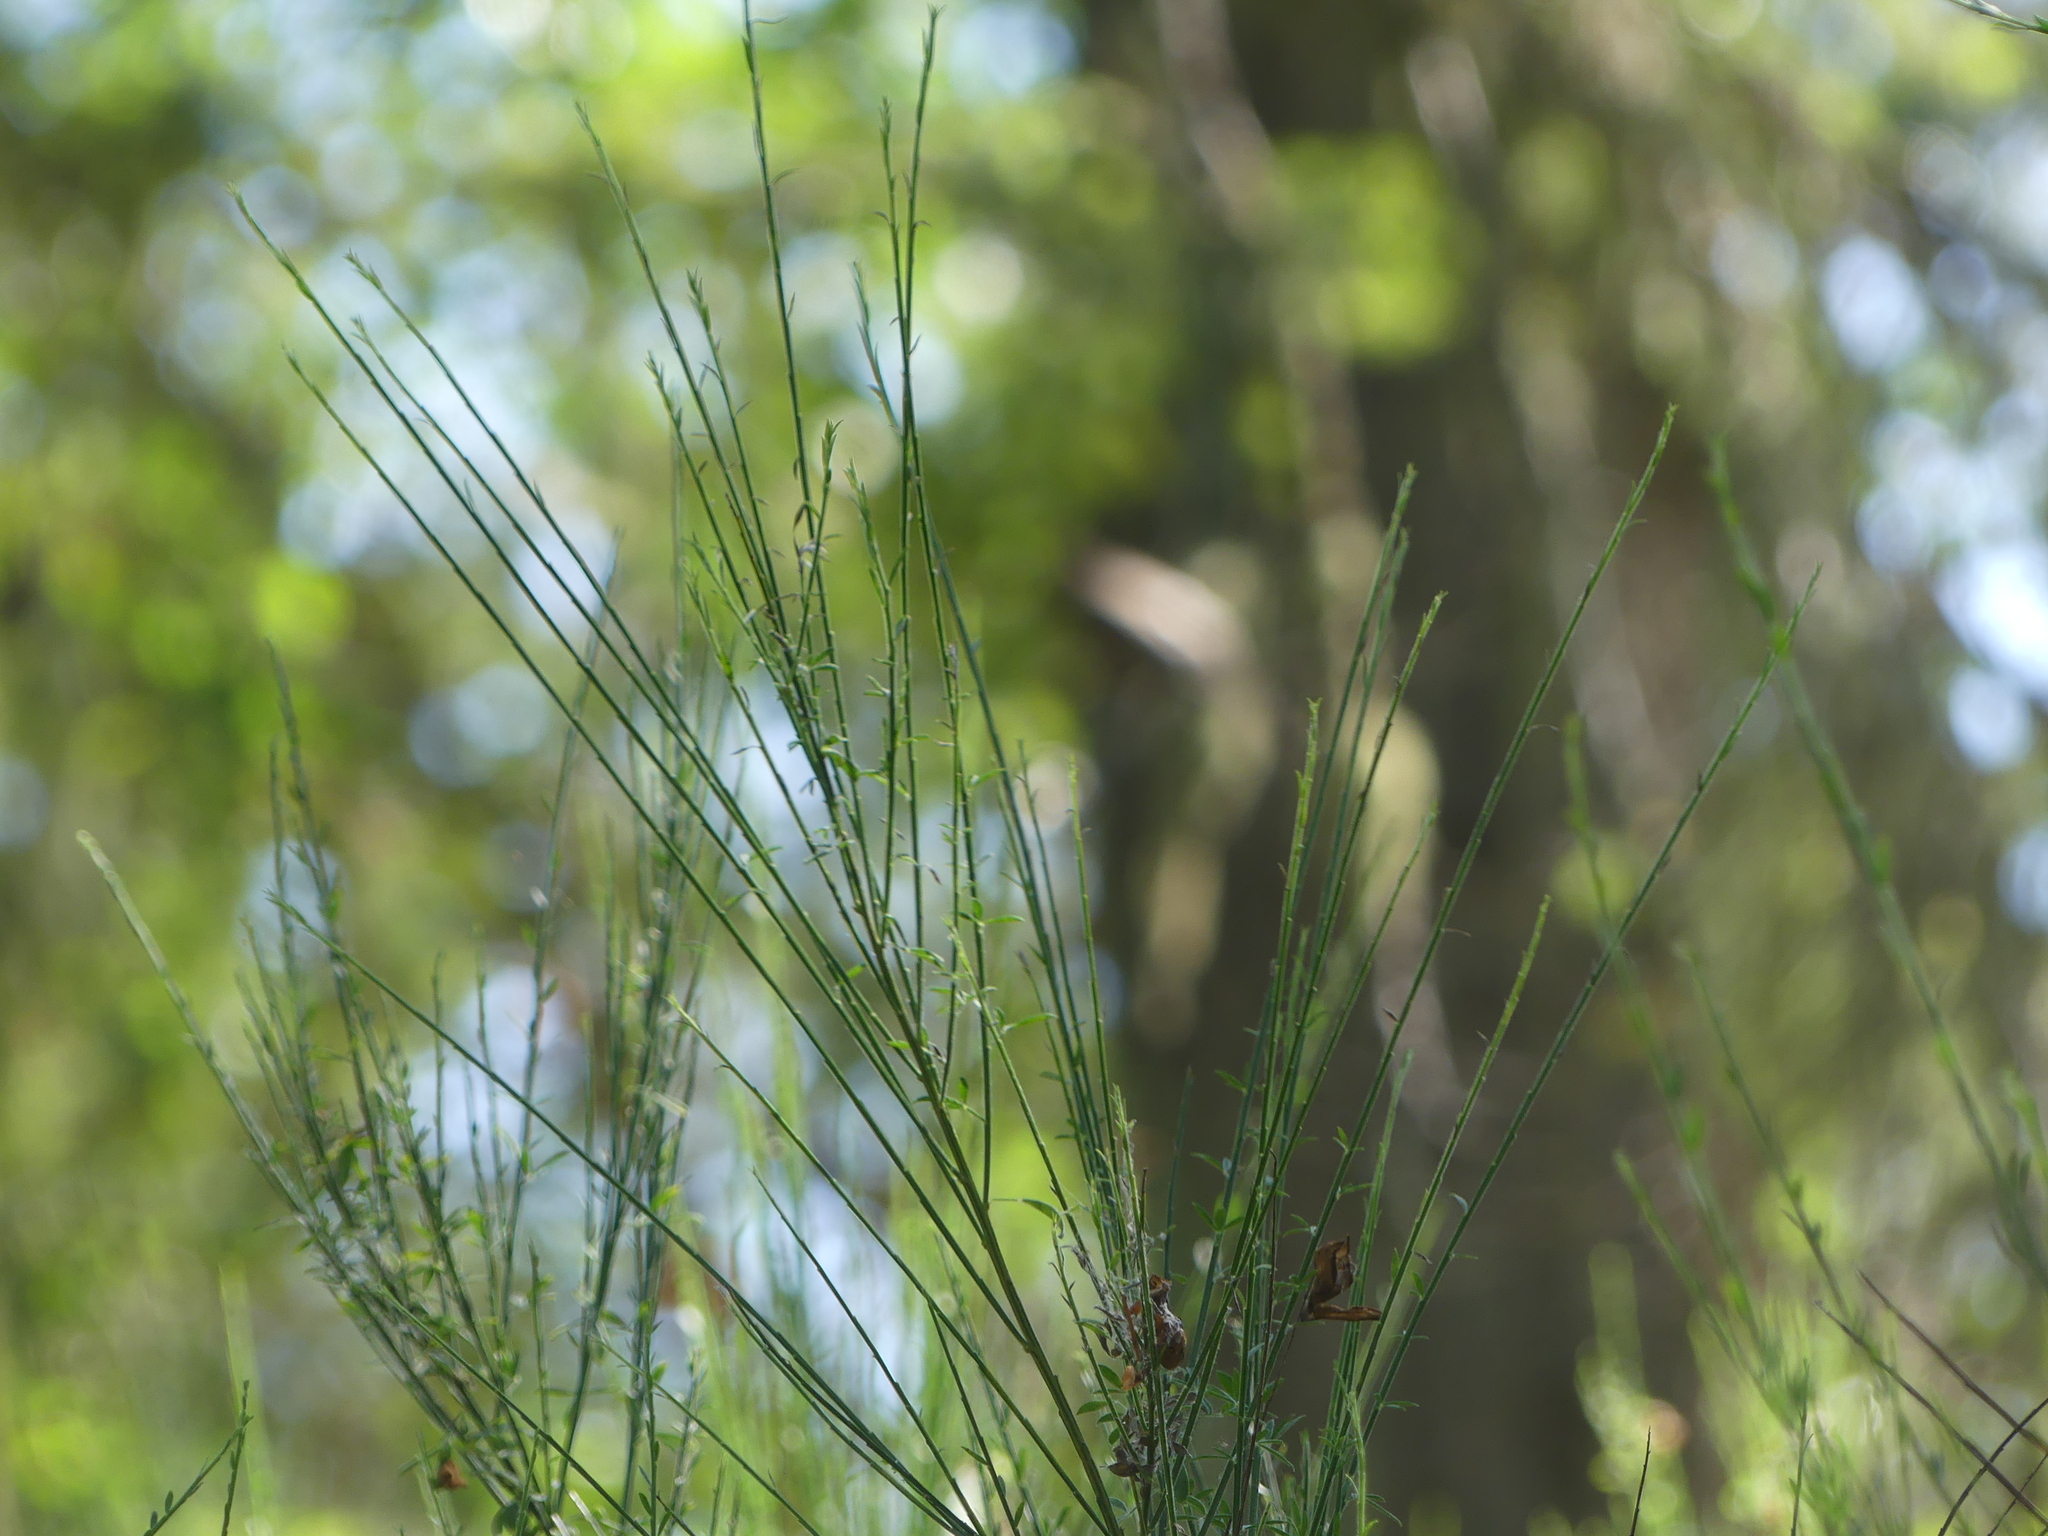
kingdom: Plantae
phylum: Tracheophyta
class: Magnoliopsida
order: Fabales
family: Fabaceae
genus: Cytisus
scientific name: Cytisus scoparius
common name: Scotch broom
